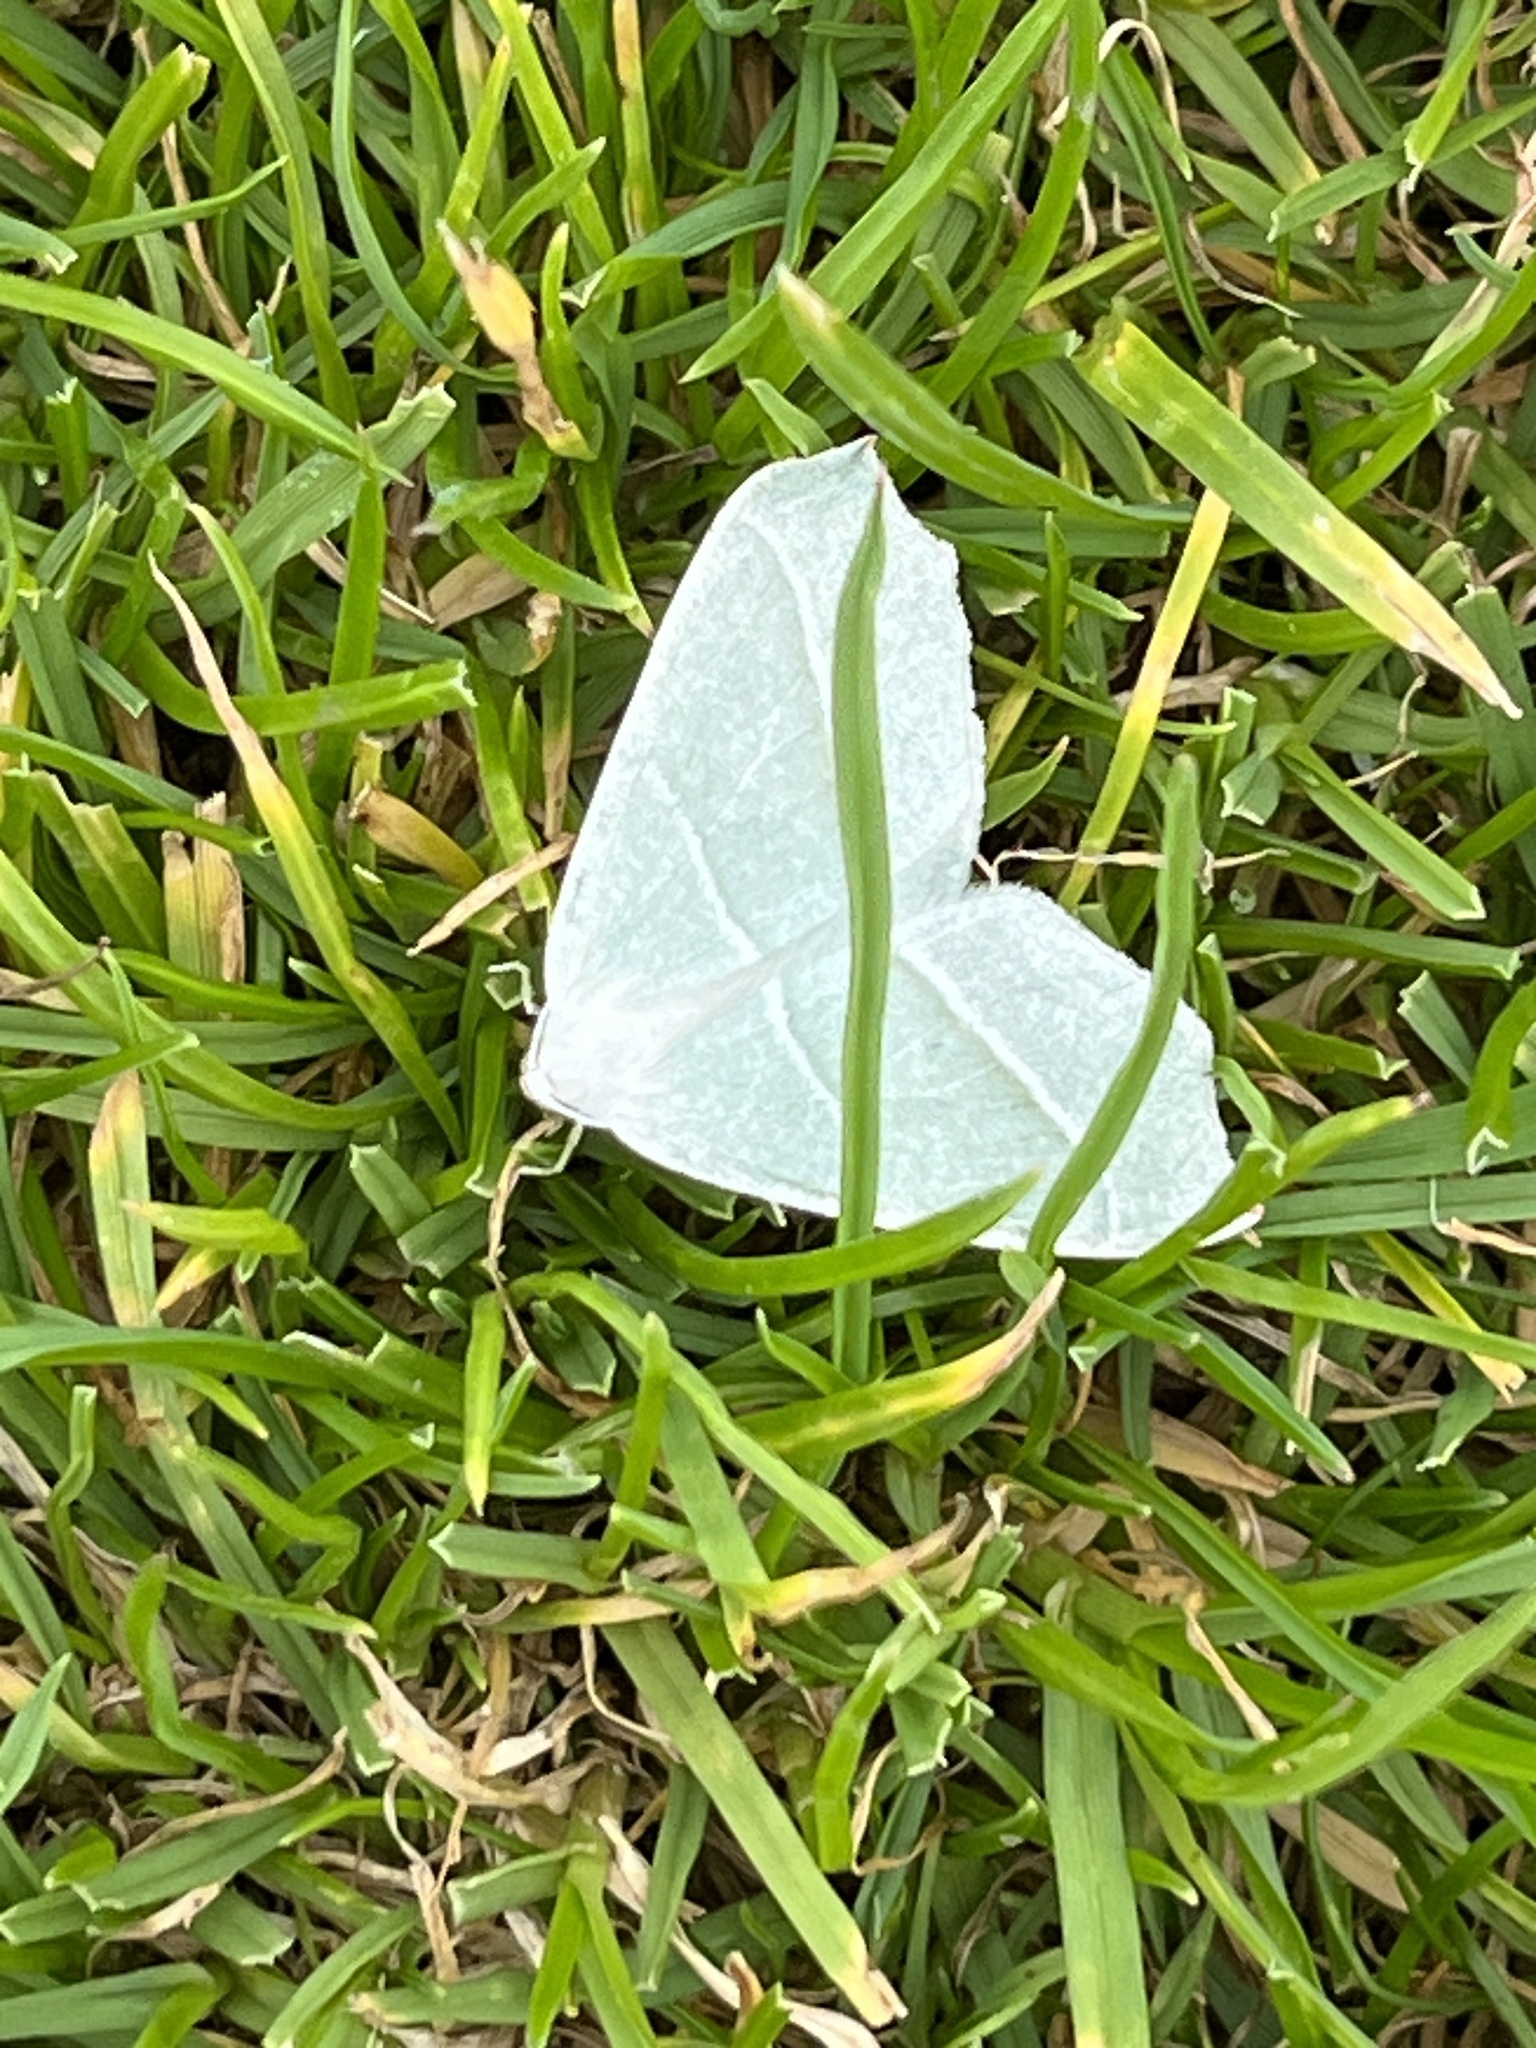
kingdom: Animalia
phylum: Arthropoda
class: Insecta
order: Lepidoptera
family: Geometridae
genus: Campaea
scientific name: Campaea margaritaria
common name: Light emerald
